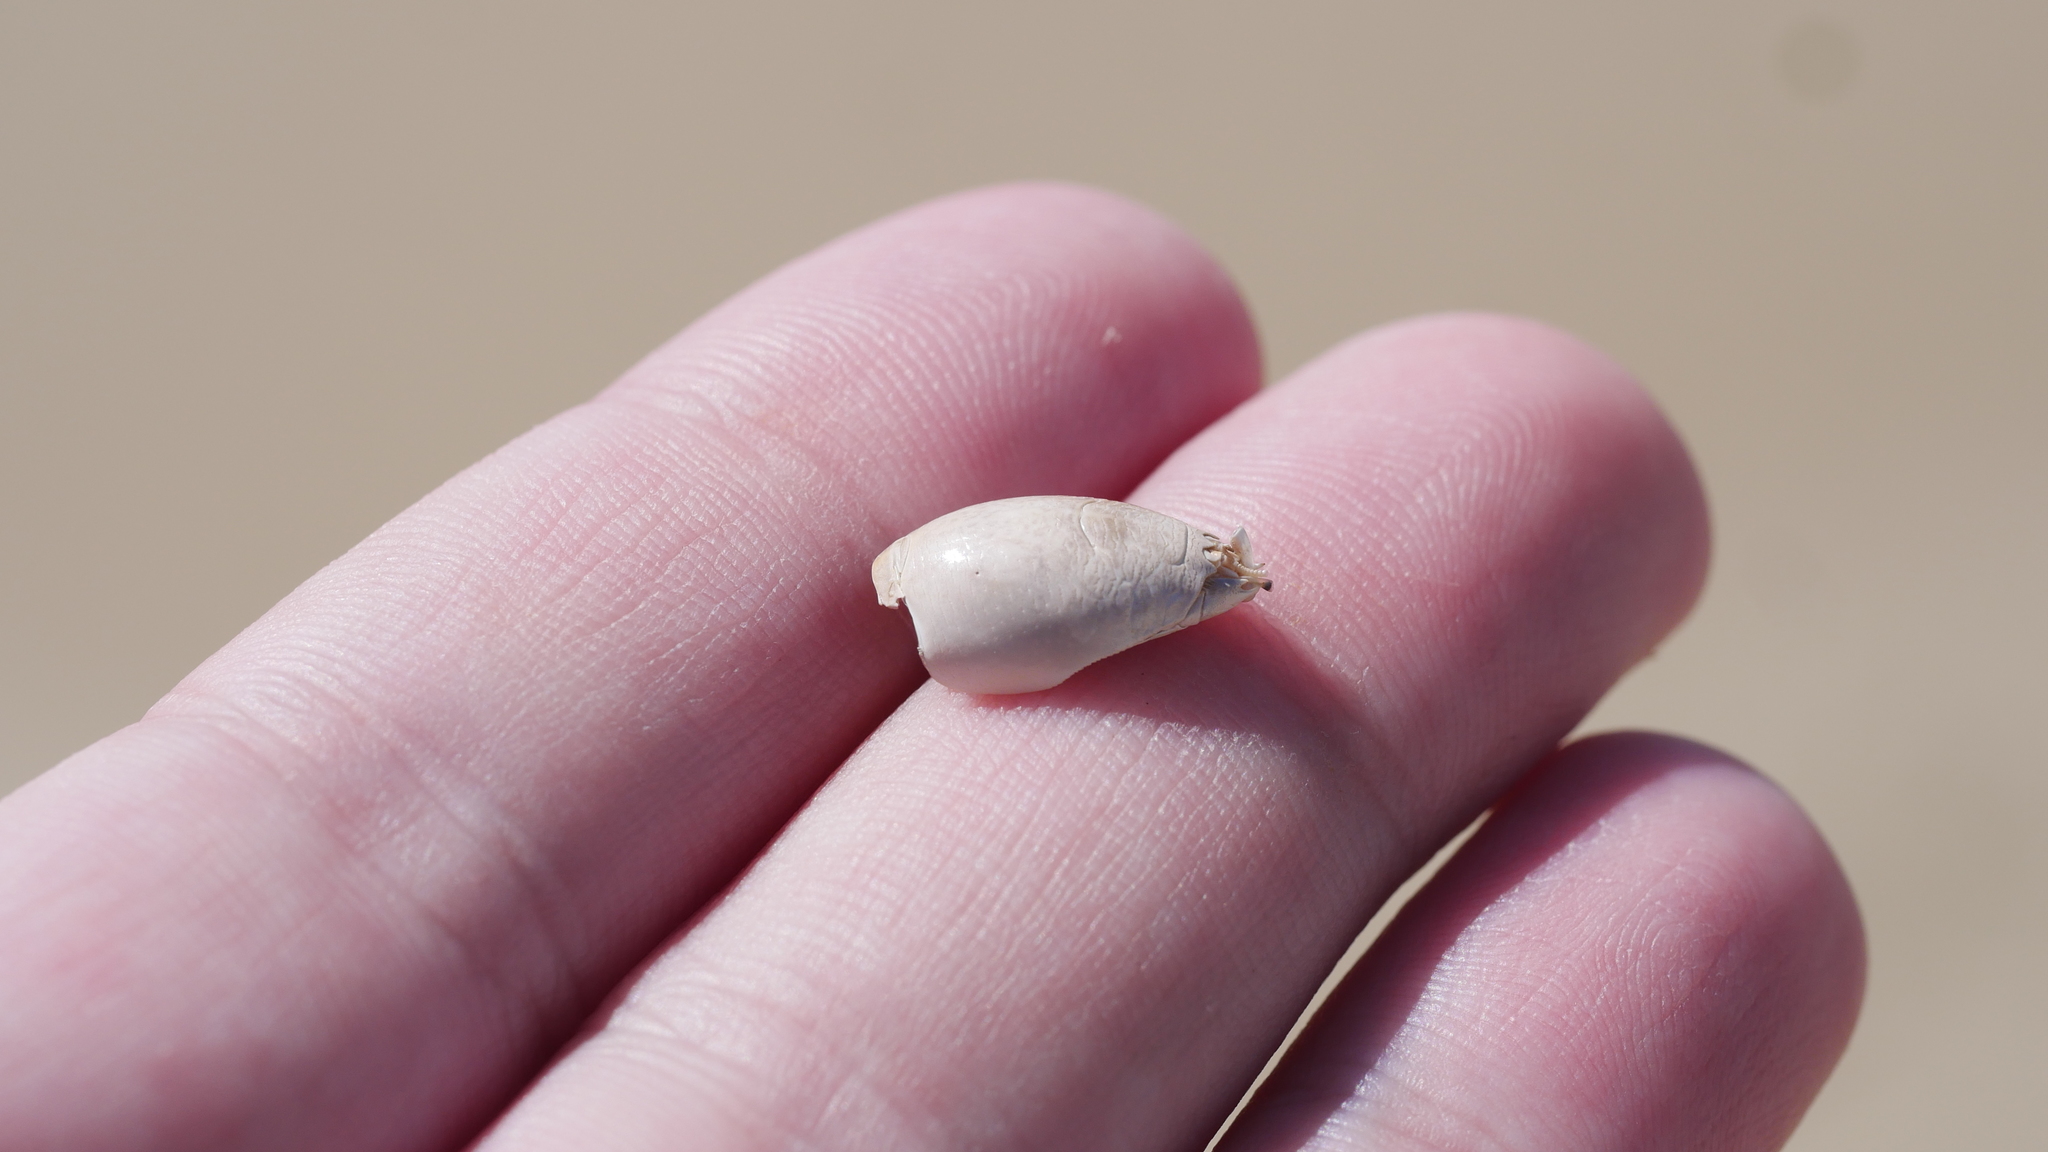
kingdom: Animalia
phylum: Arthropoda
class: Malacostraca
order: Decapoda
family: Hippidae
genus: Emerita
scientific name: Emerita talpoida
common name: Atlantic sand crab
